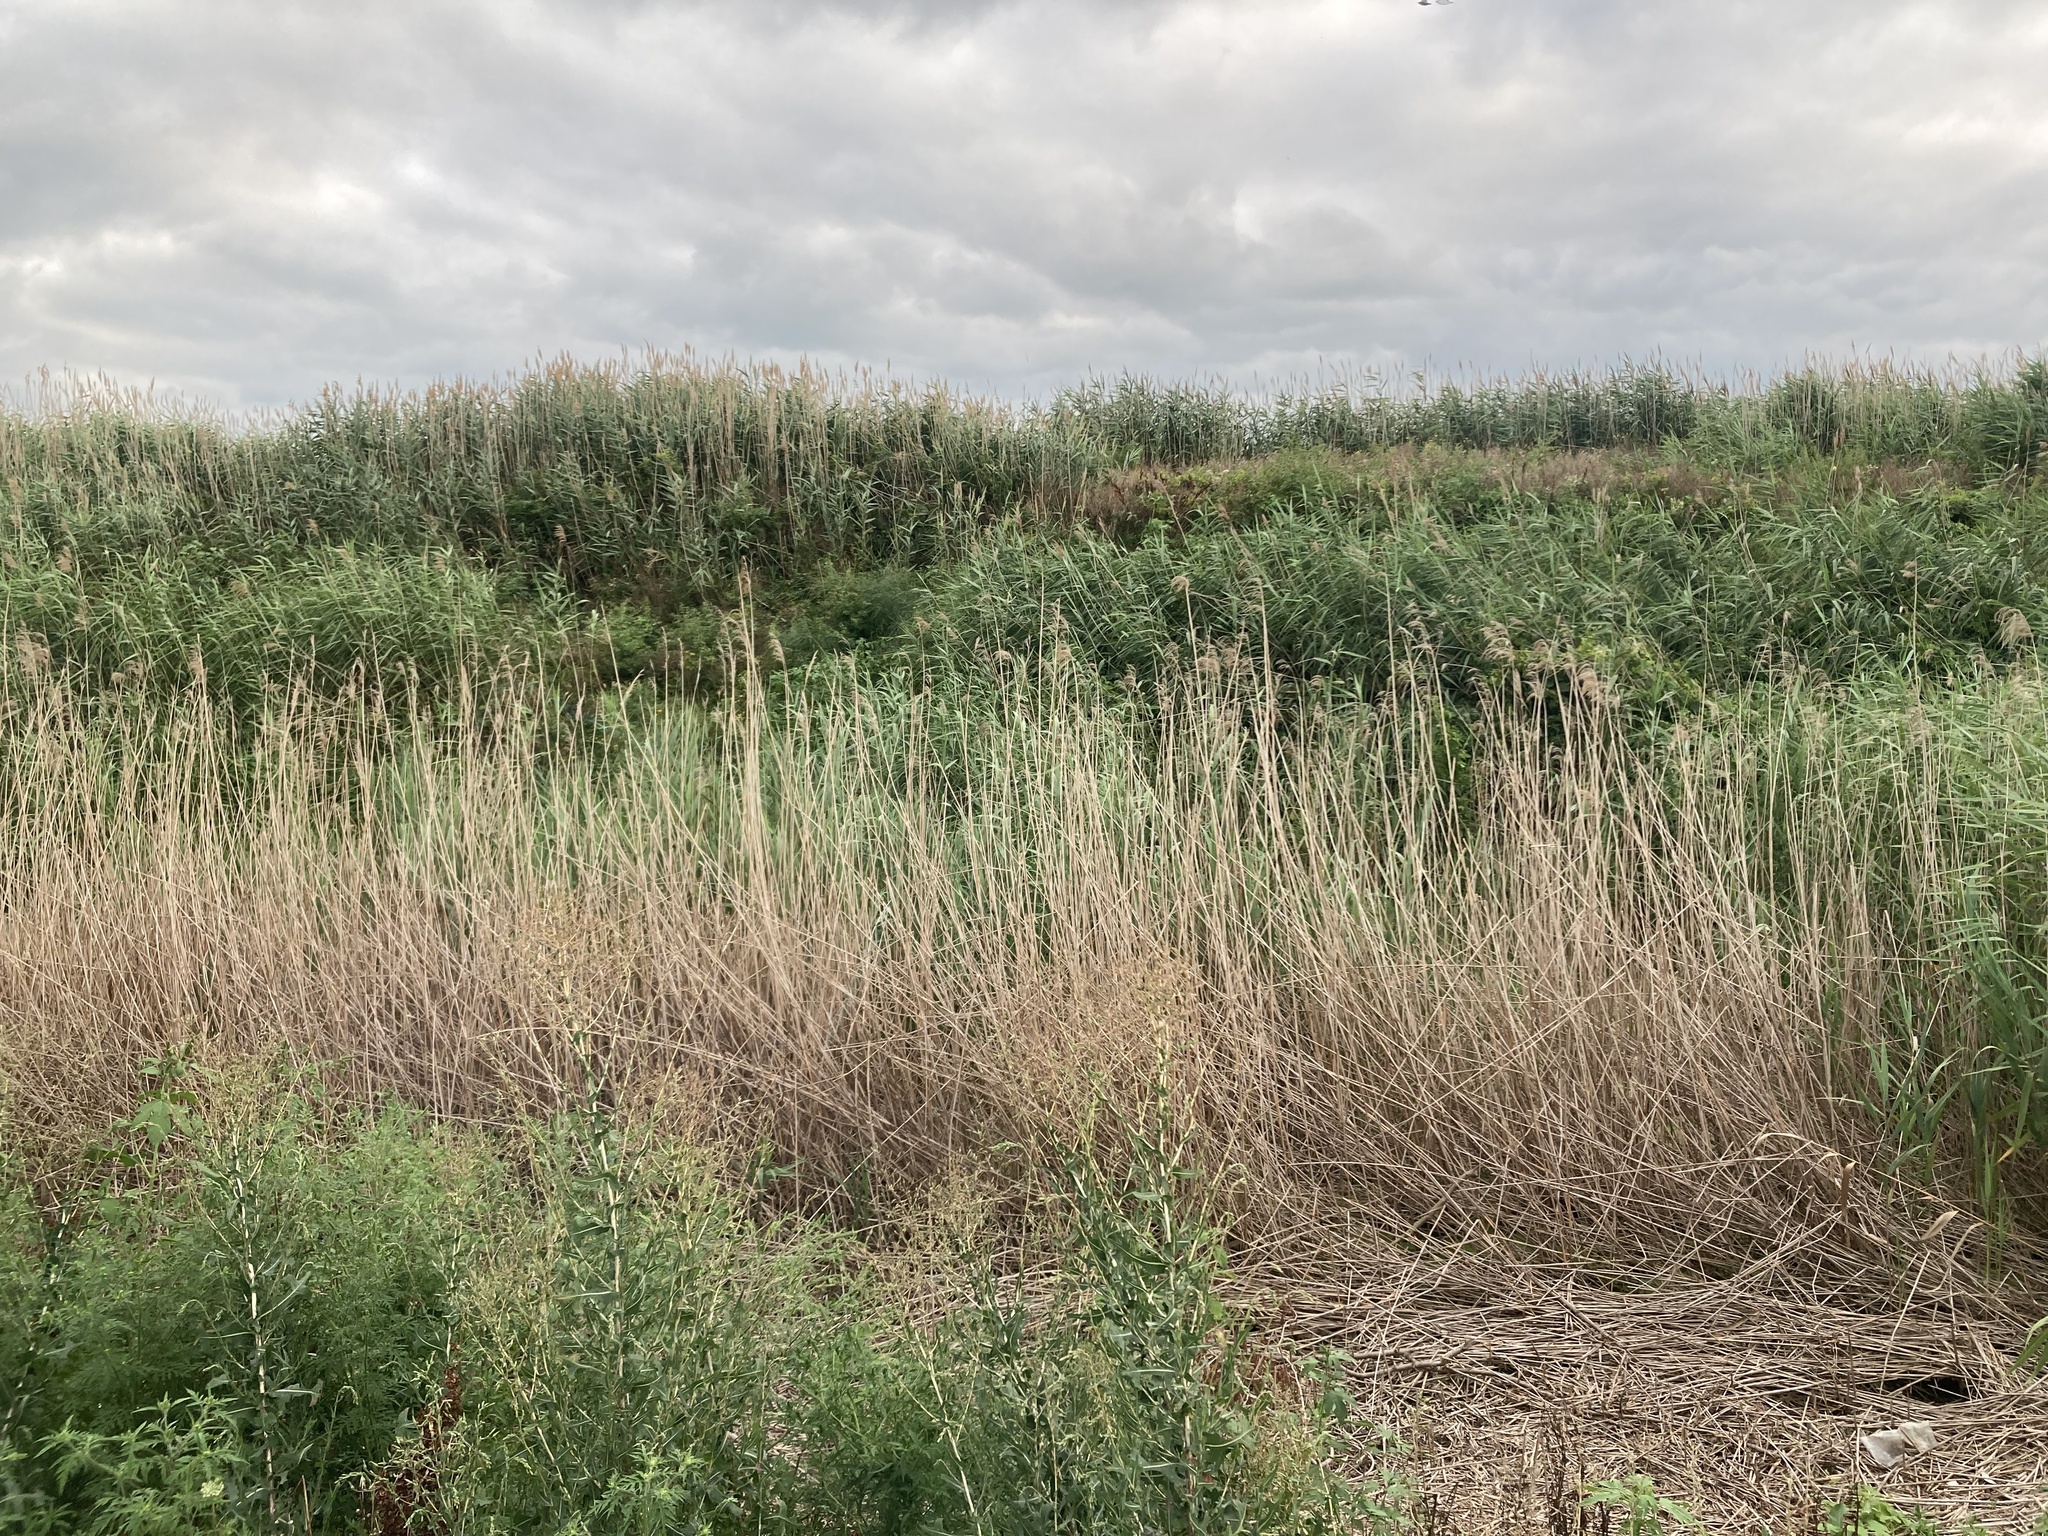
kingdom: Plantae
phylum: Tracheophyta
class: Liliopsida
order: Poales
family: Poaceae
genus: Phragmites
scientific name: Phragmites australis
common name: Common reed
